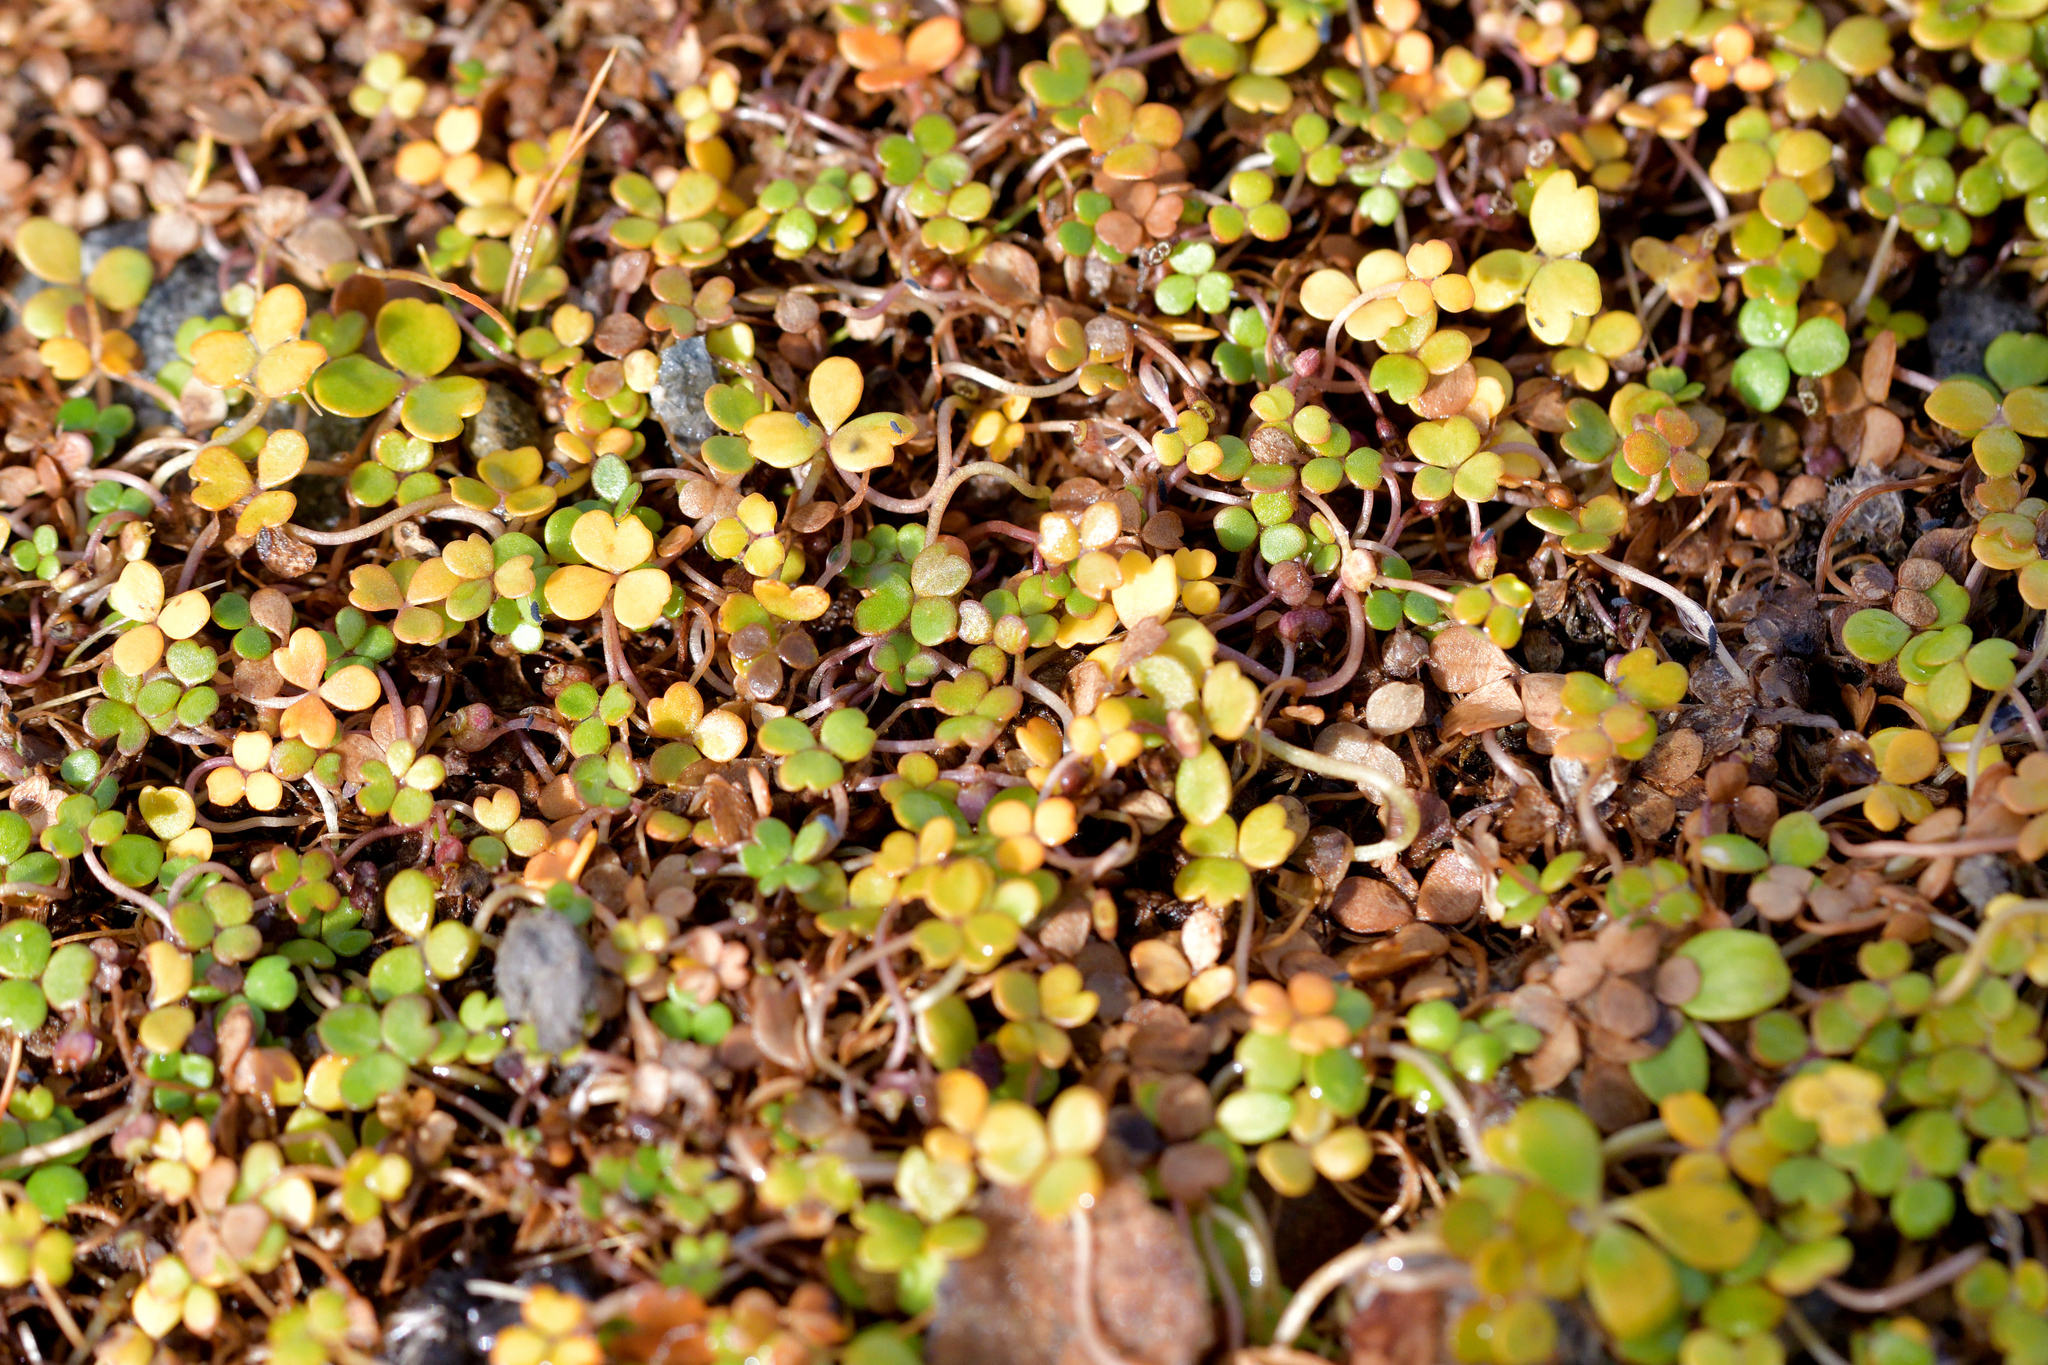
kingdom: Plantae
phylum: Tracheophyta
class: Magnoliopsida
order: Apiales
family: Araliaceae
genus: Hydrocotyle
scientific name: Hydrocotyle hydrophila
